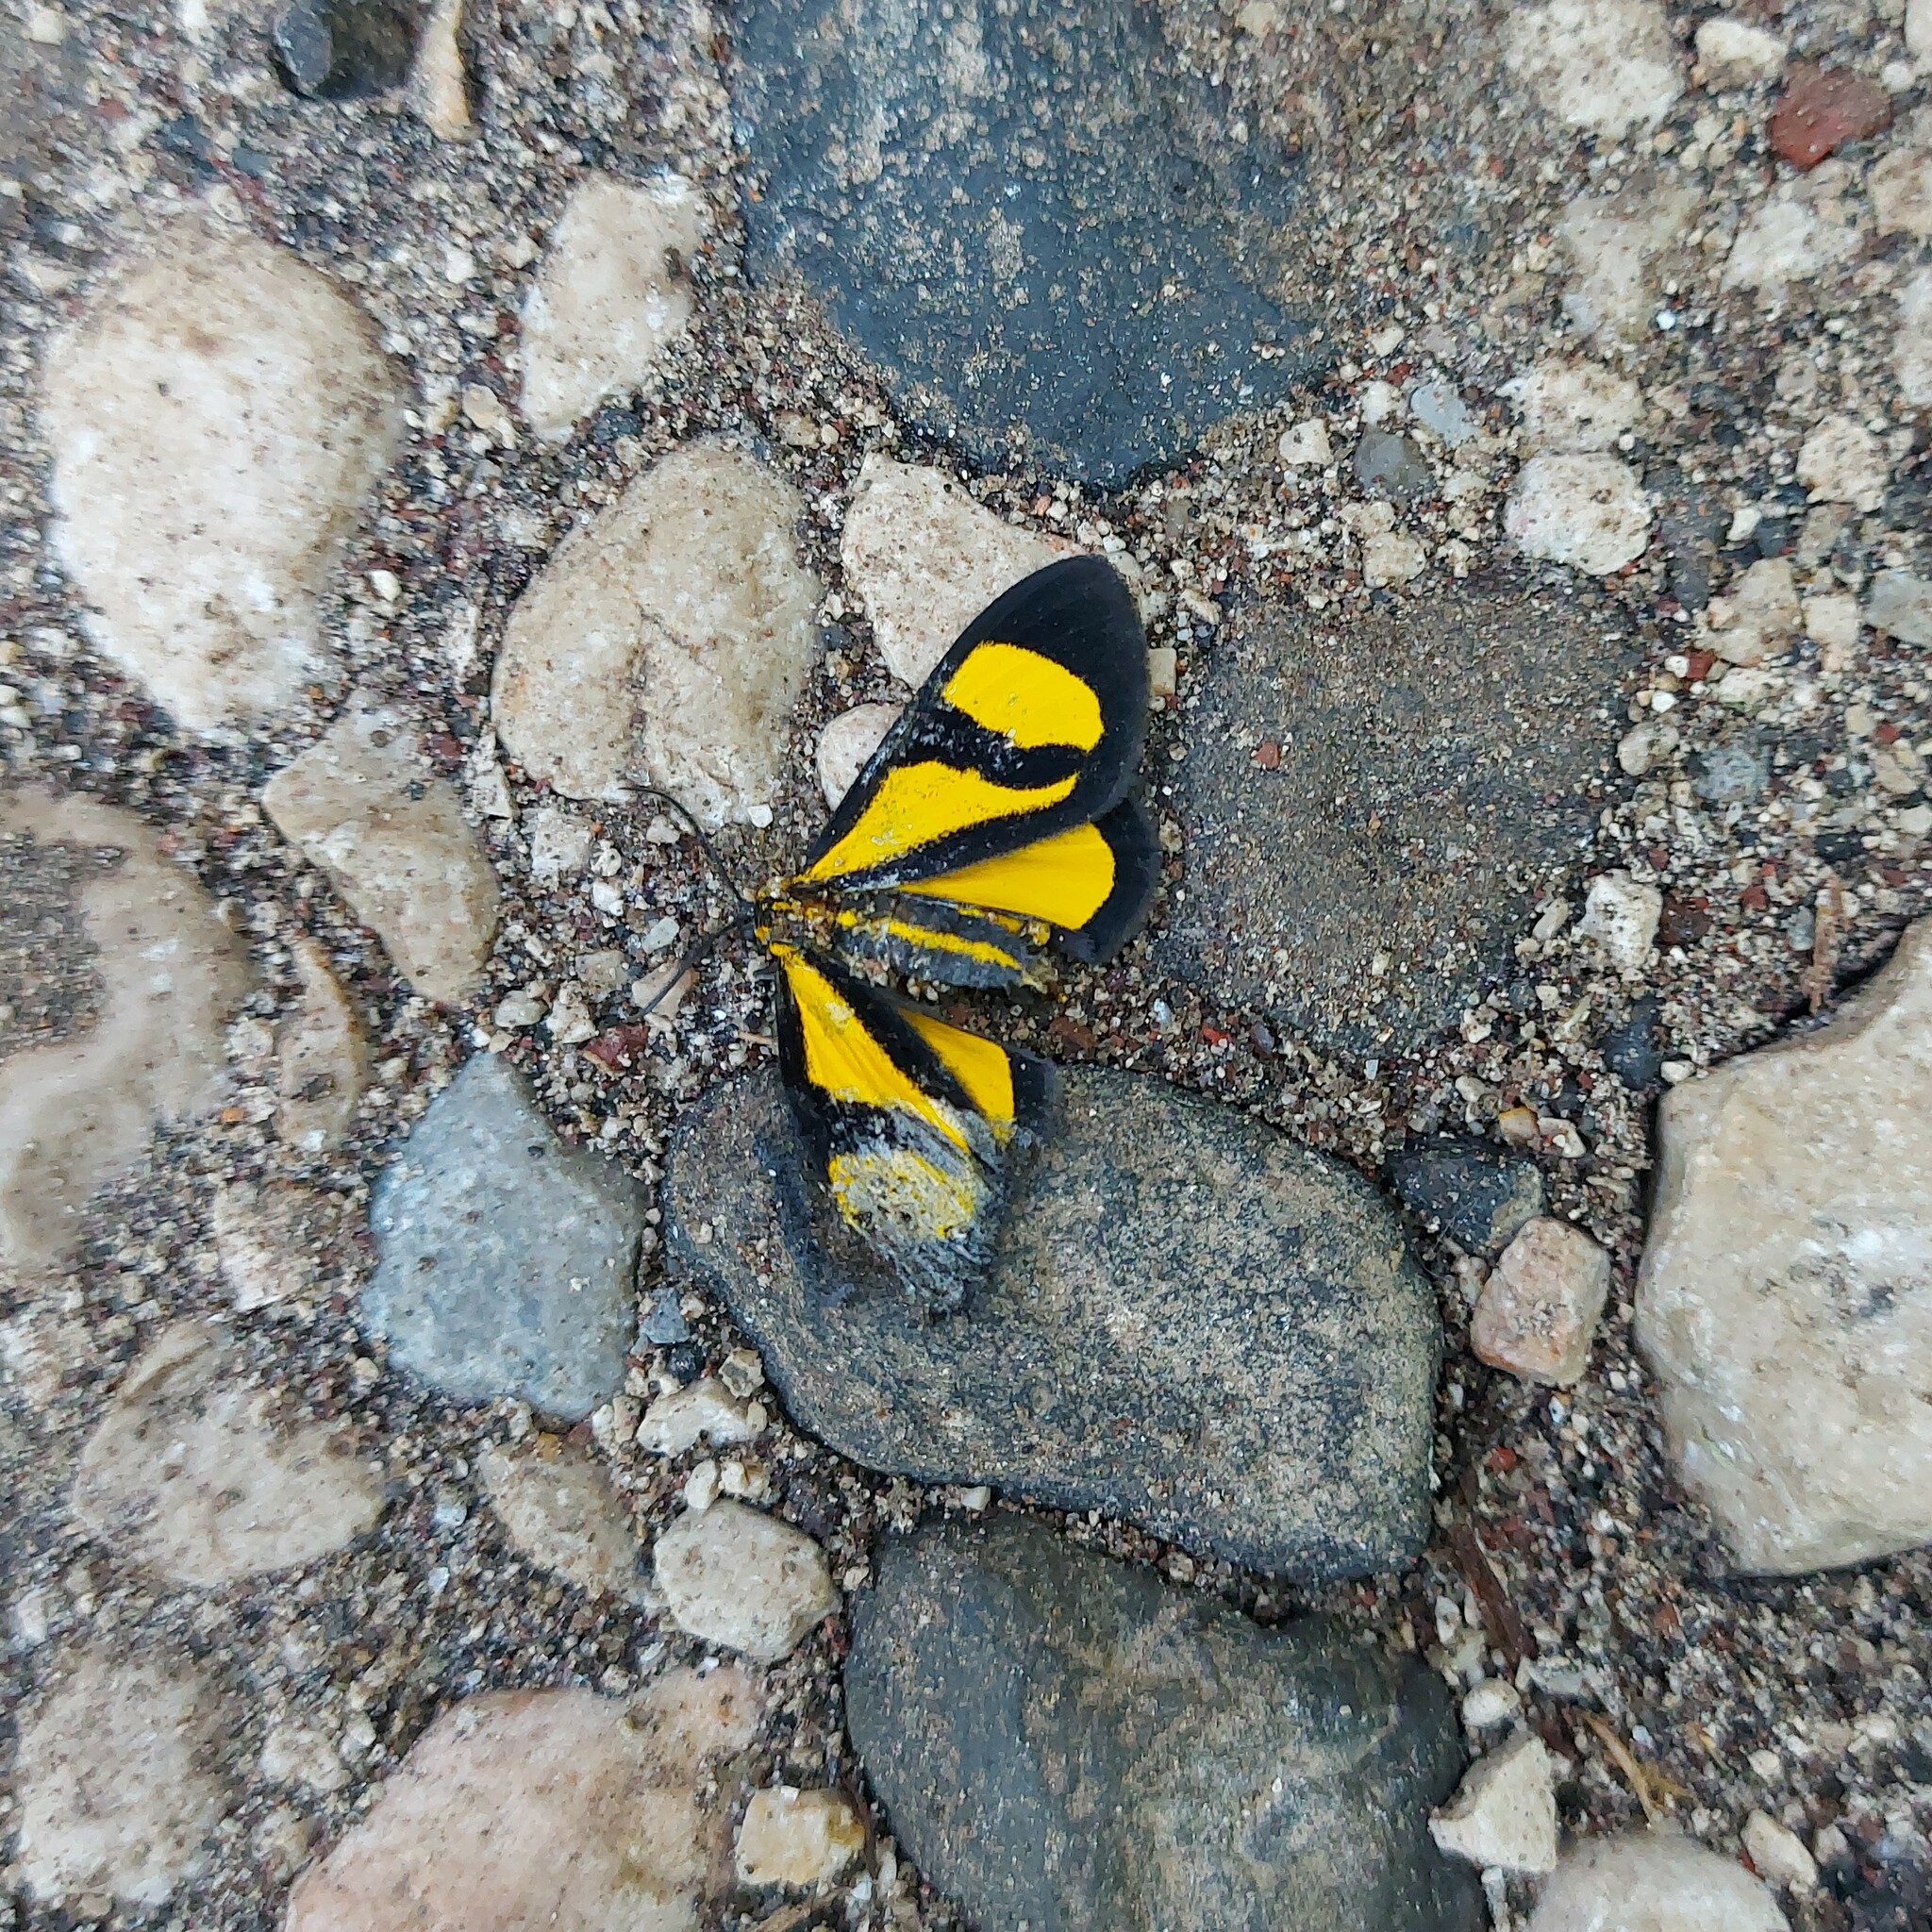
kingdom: Animalia
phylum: Arthropoda
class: Insecta
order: Lepidoptera
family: Geometridae
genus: Smicropus
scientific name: Smicropus laeta
